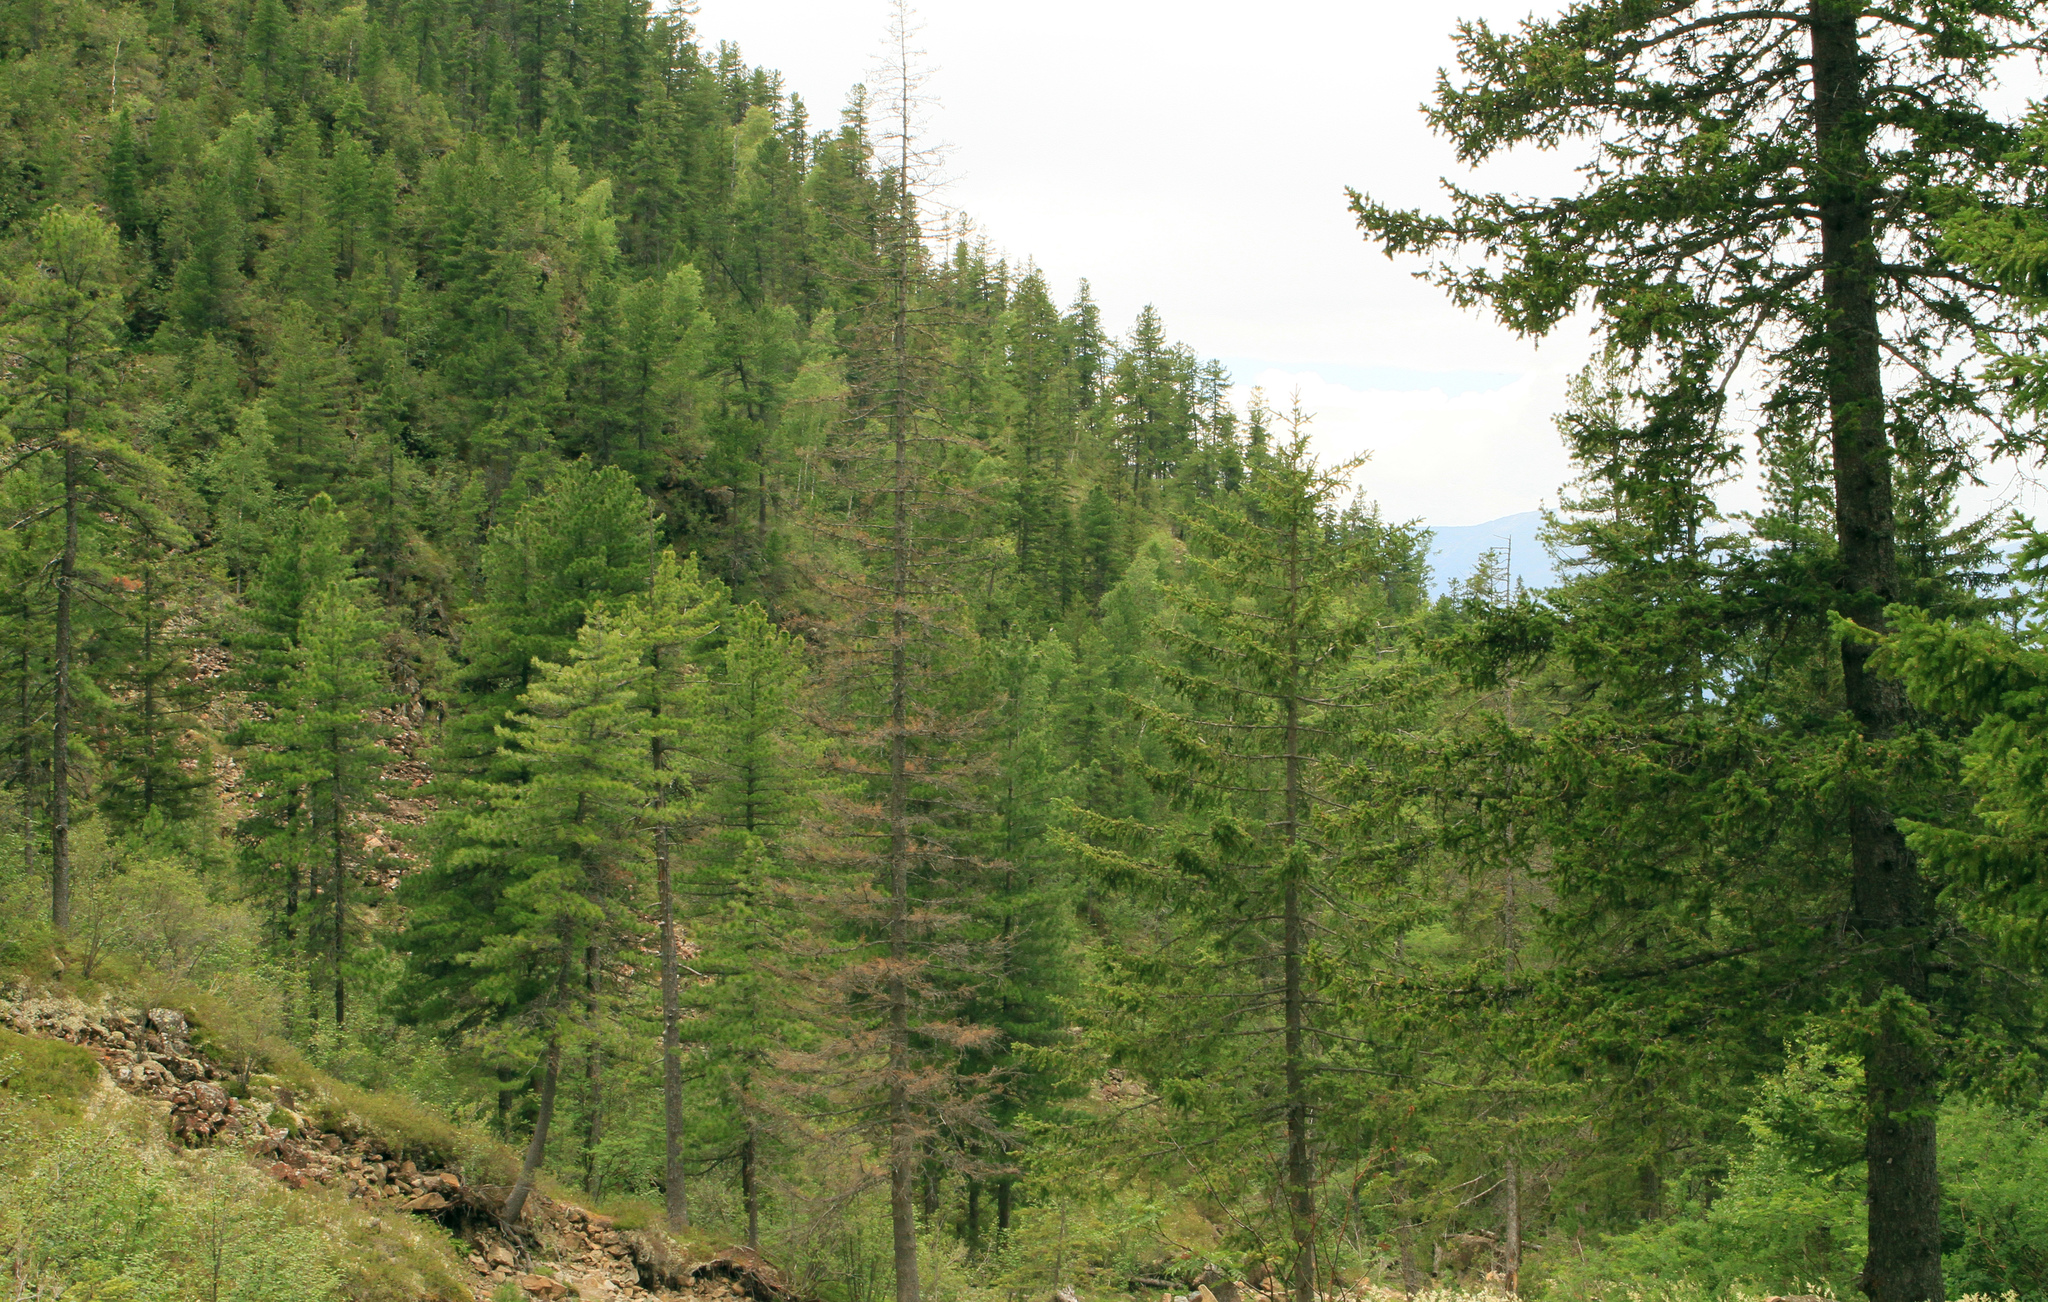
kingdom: Plantae
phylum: Tracheophyta
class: Pinopsida
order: Pinales
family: Pinaceae
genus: Picea
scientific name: Picea obovata
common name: Siberian spruce
